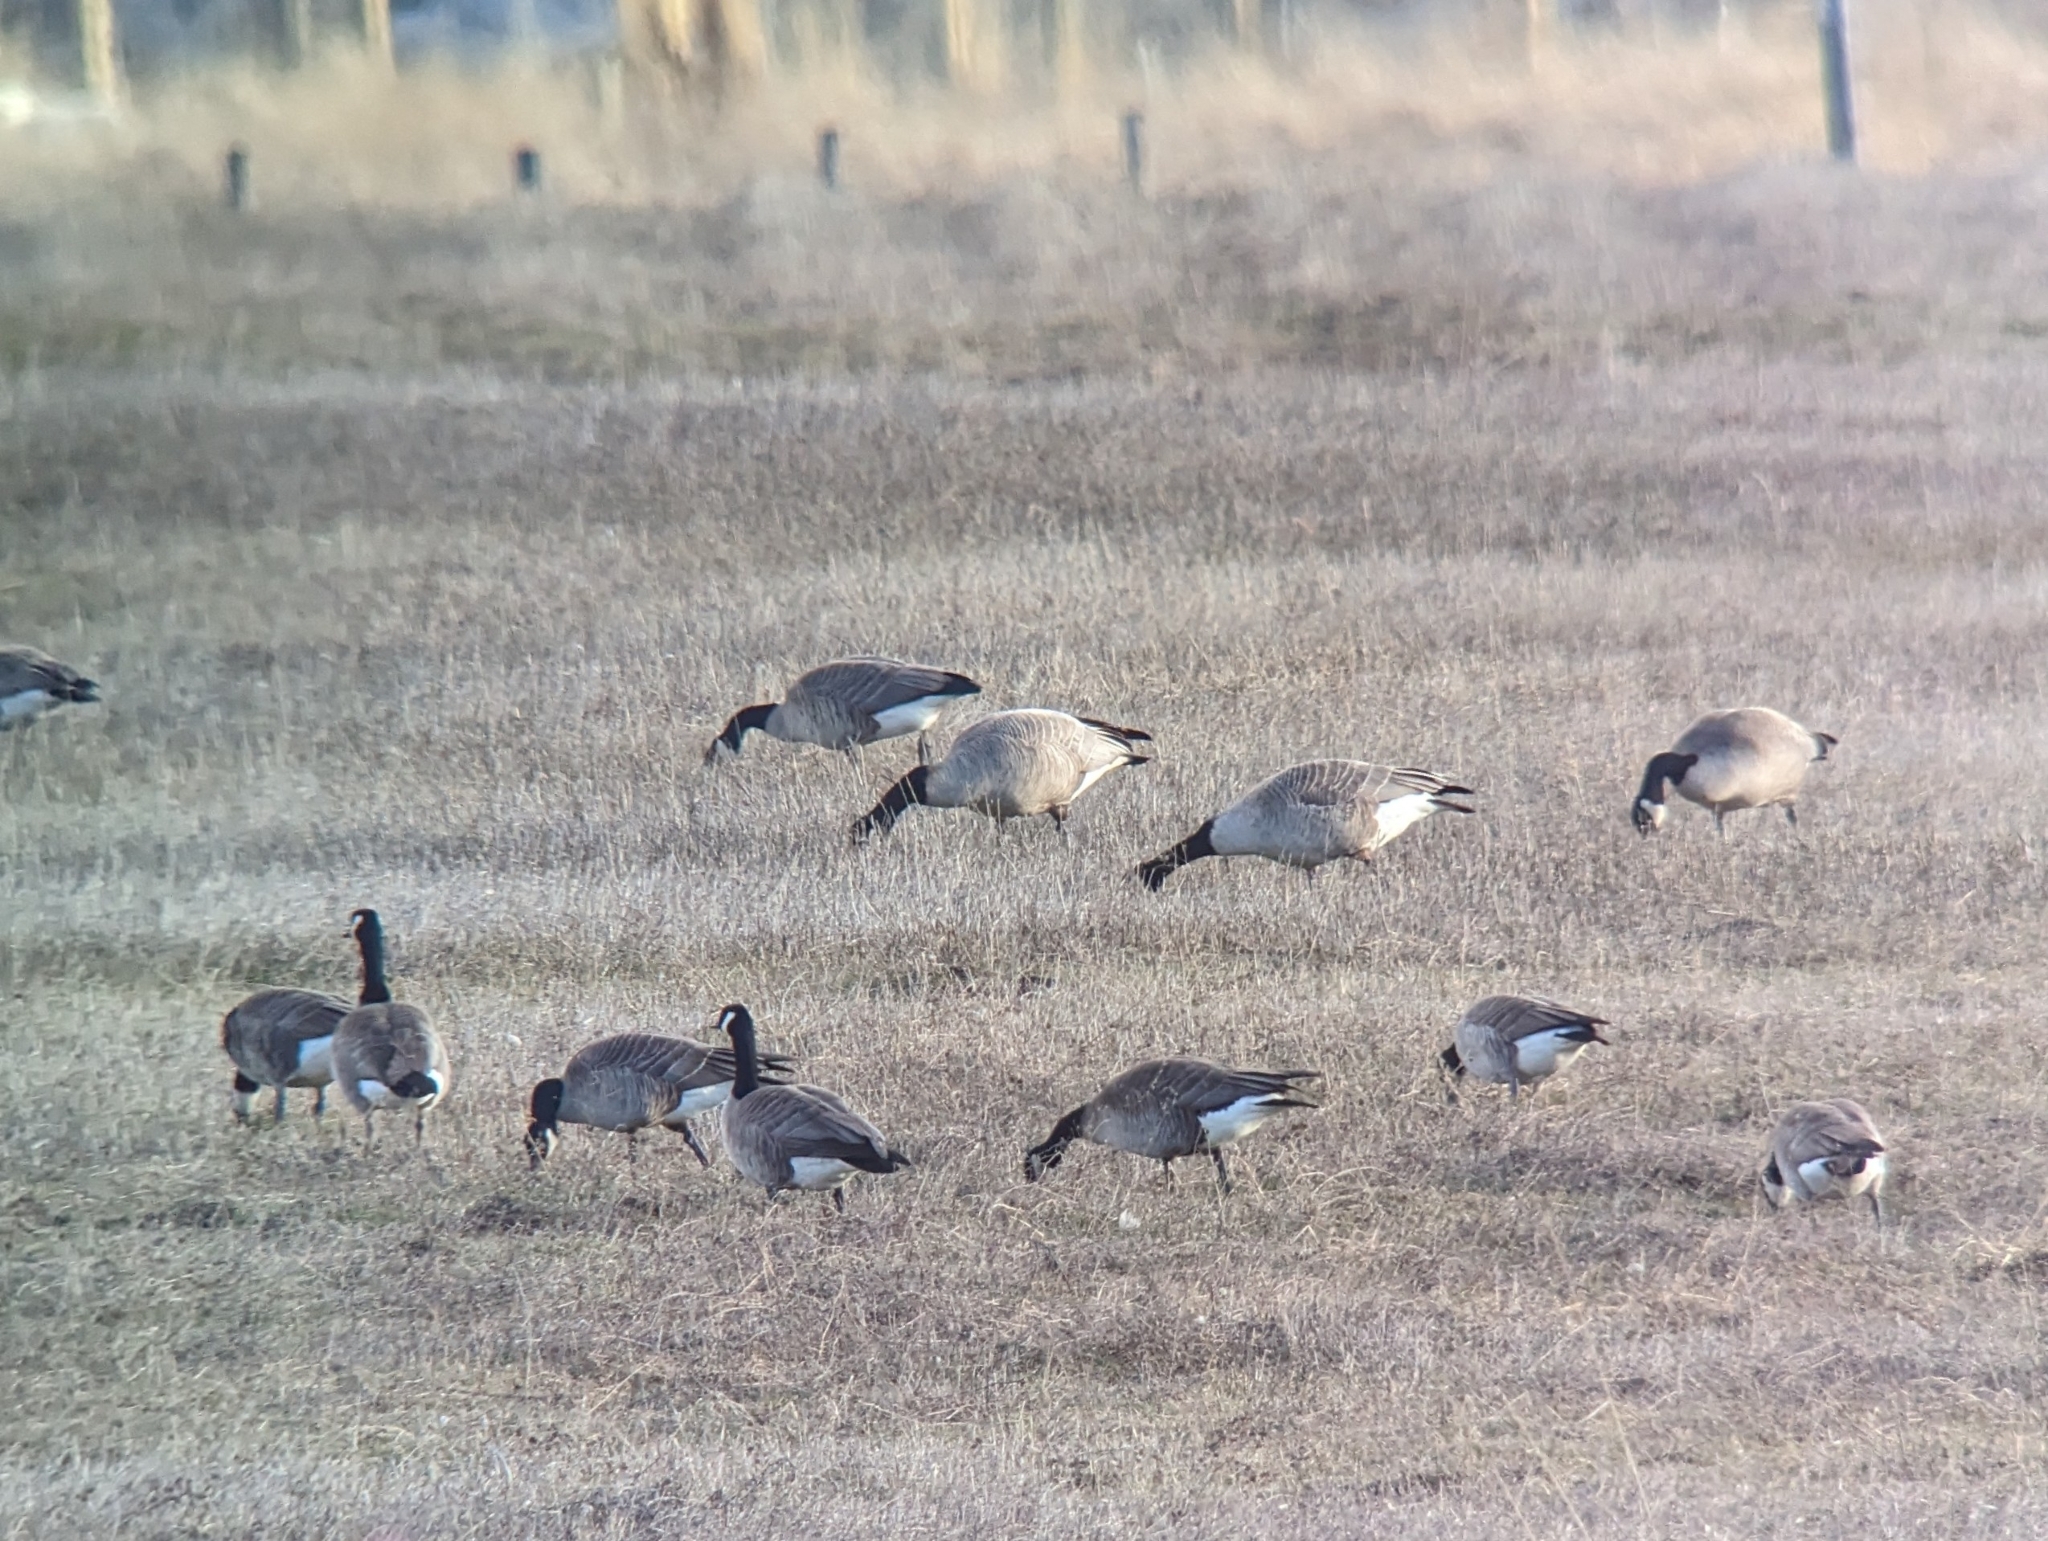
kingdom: Animalia
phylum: Chordata
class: Aves
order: Anseriformes
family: Anatidae
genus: Branta
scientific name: Branta hutchinsii
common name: Cackling goose
